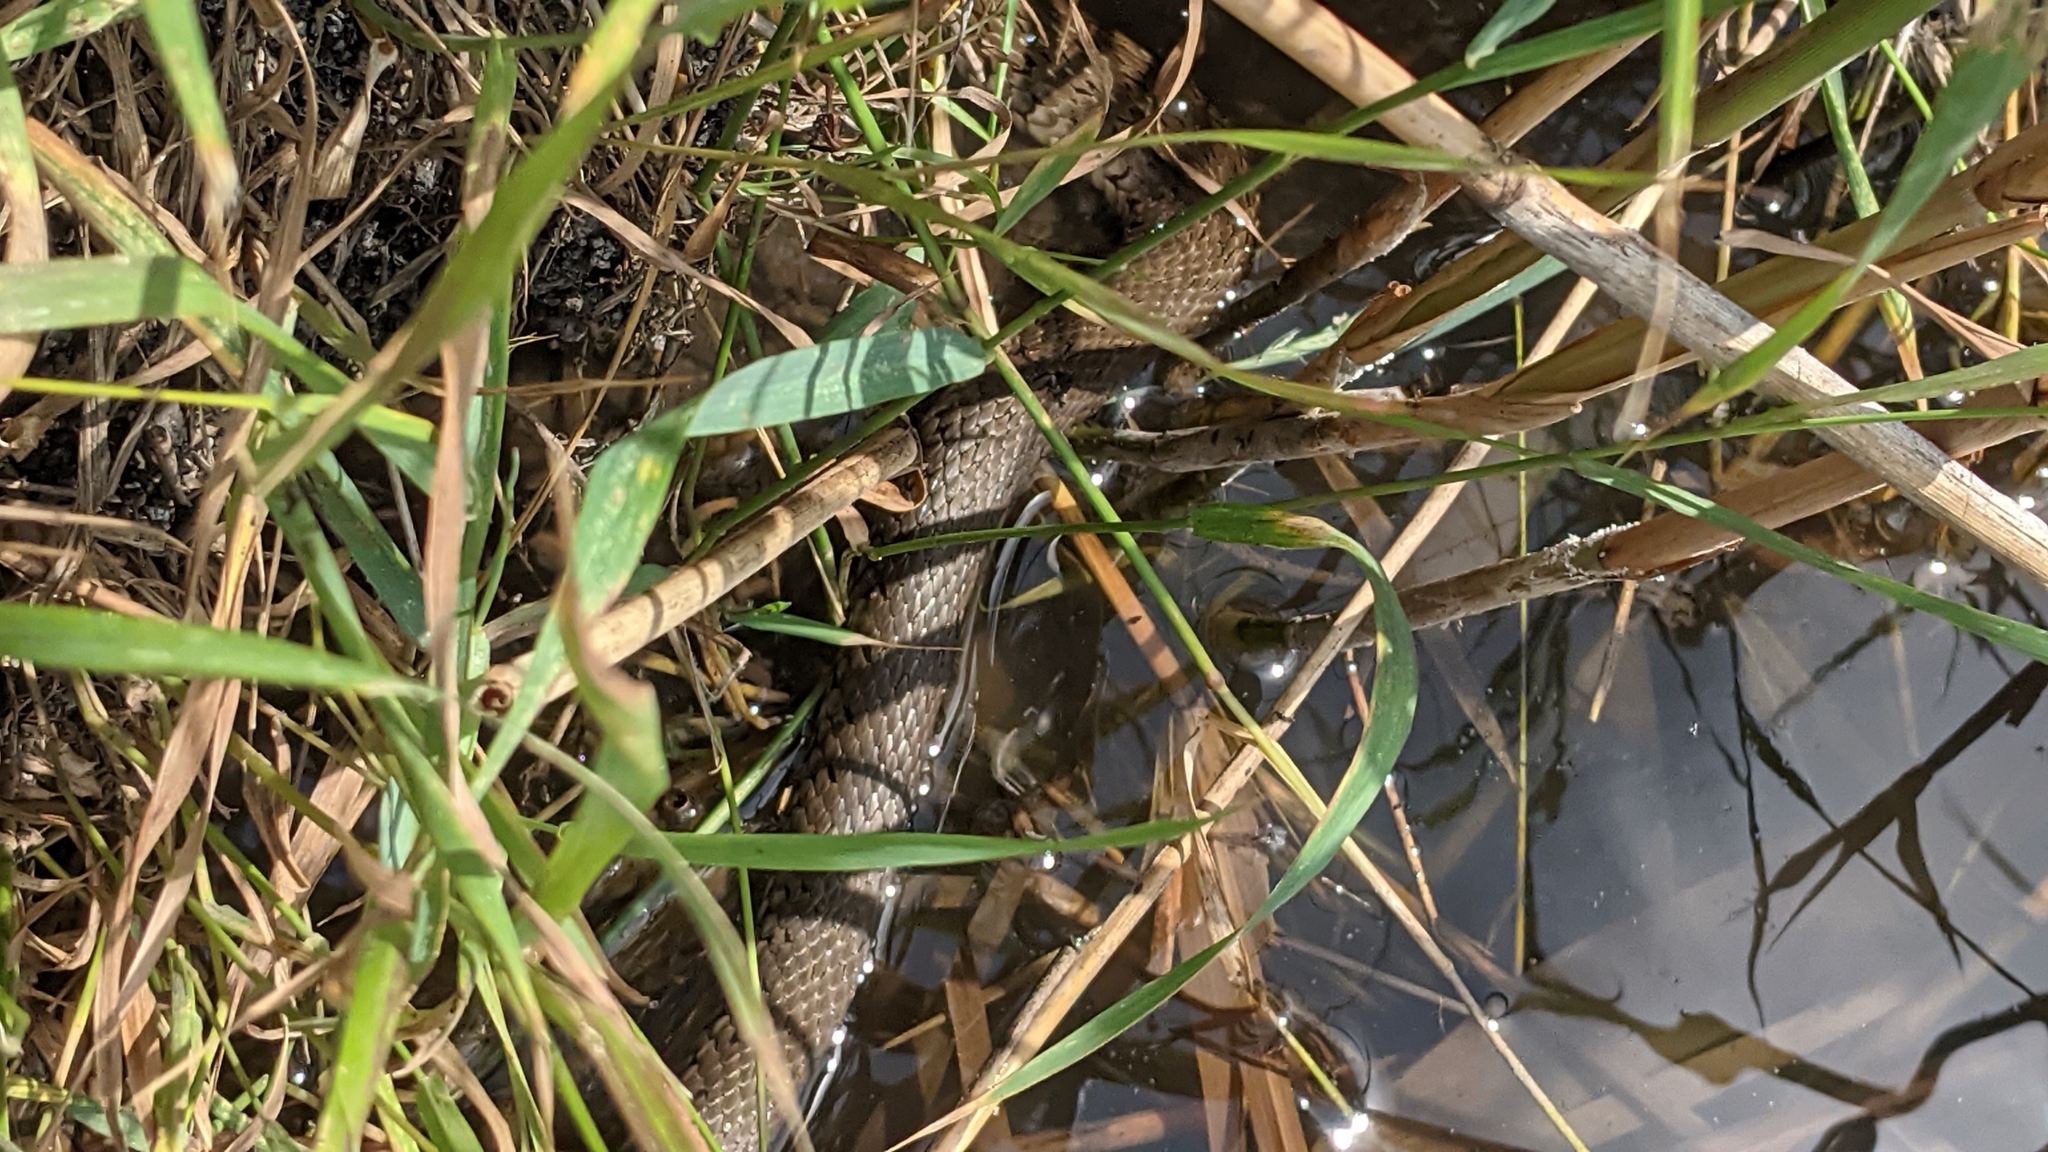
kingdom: Animalia
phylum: Chordata
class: Squamata
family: Colubridae
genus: Natrix
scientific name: Natrix natrix
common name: Grass snake
